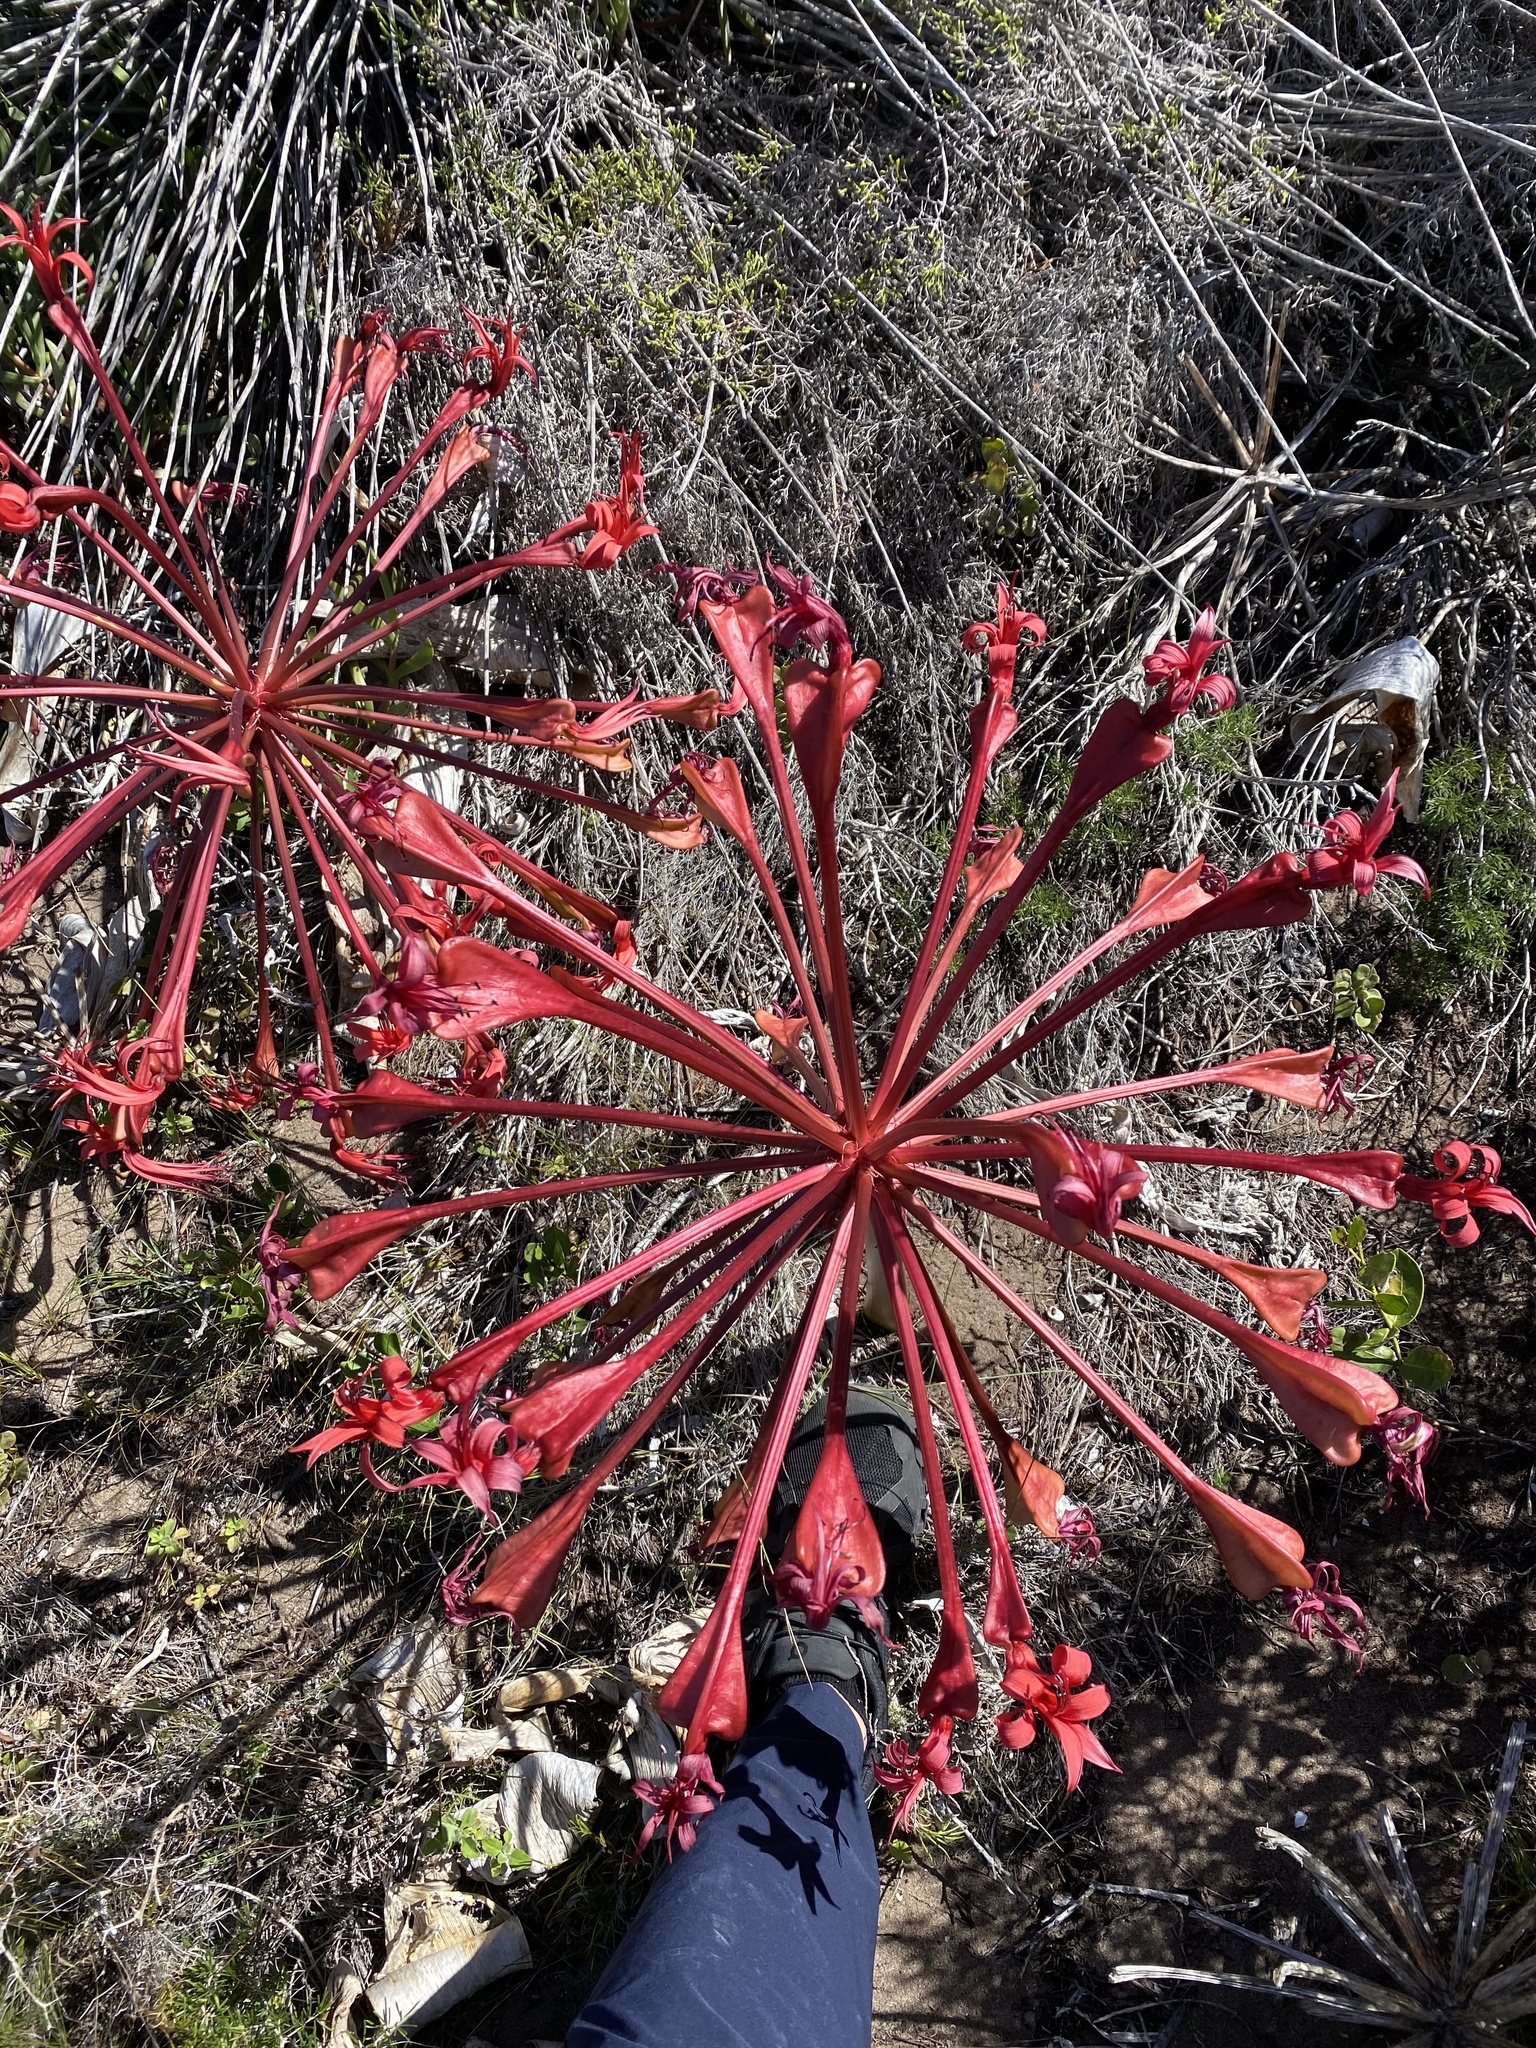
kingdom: Plantae
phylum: Tracheophyta
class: Liliopsida
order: Asparagales
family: Amaryllidaceae
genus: Brunsvigia
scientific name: Brunsvigia orientalis
